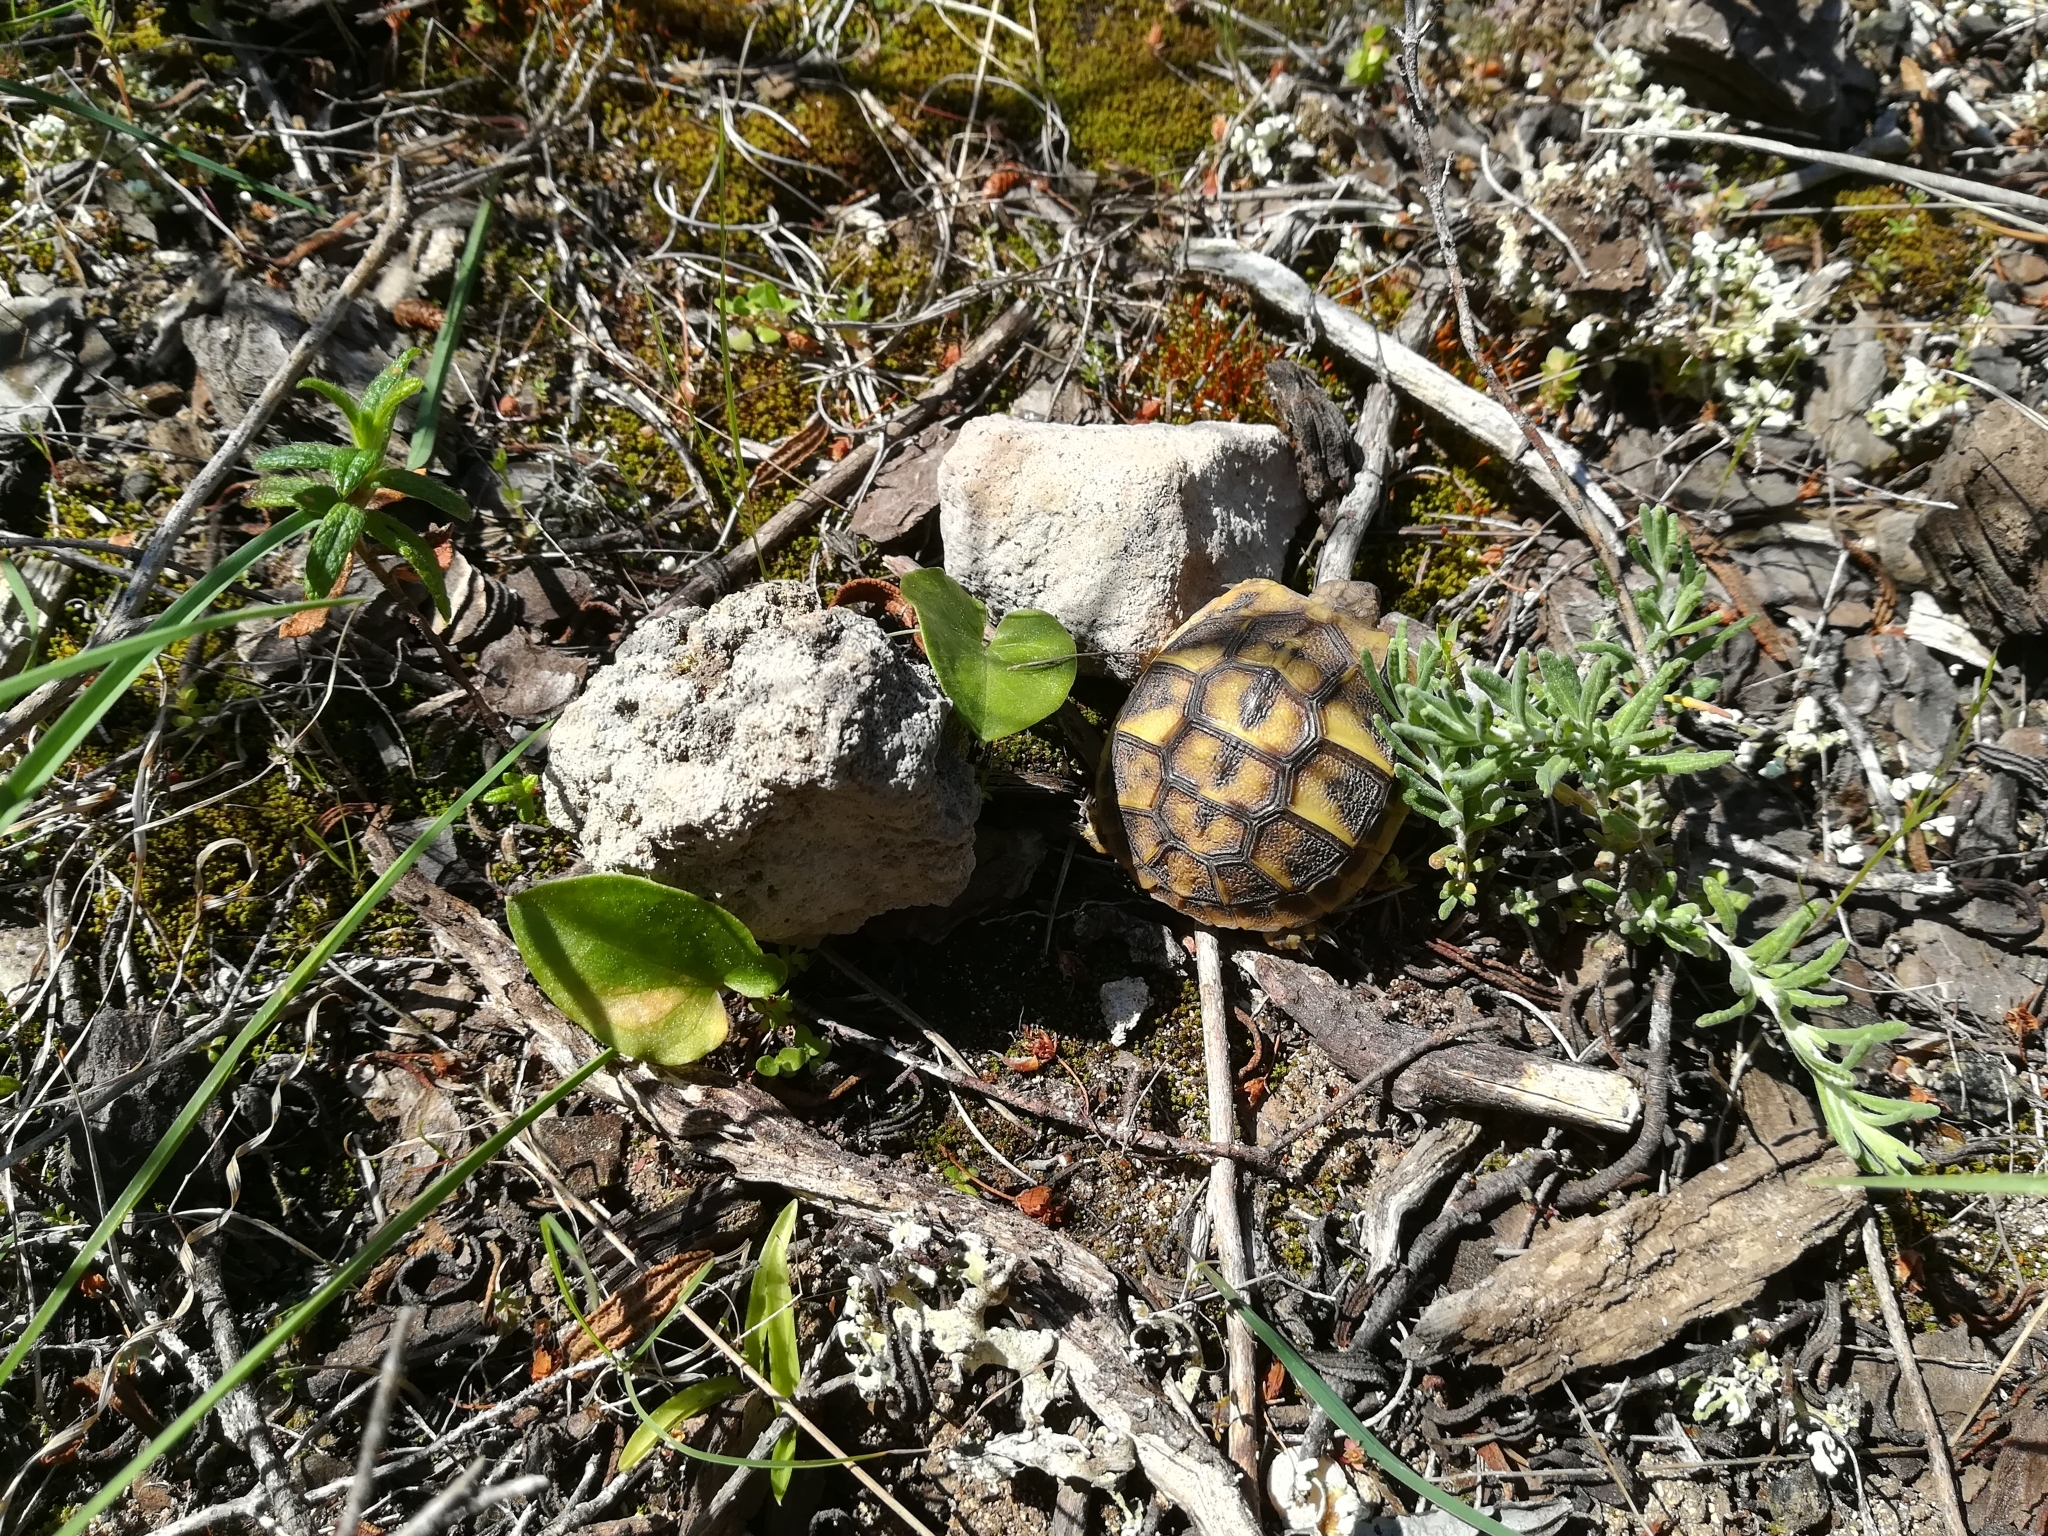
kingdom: Animalia
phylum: Chordata
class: Testudines
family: Testudinidae
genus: Testudo
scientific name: Testudo hermanni
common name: Hermann's tortoise
